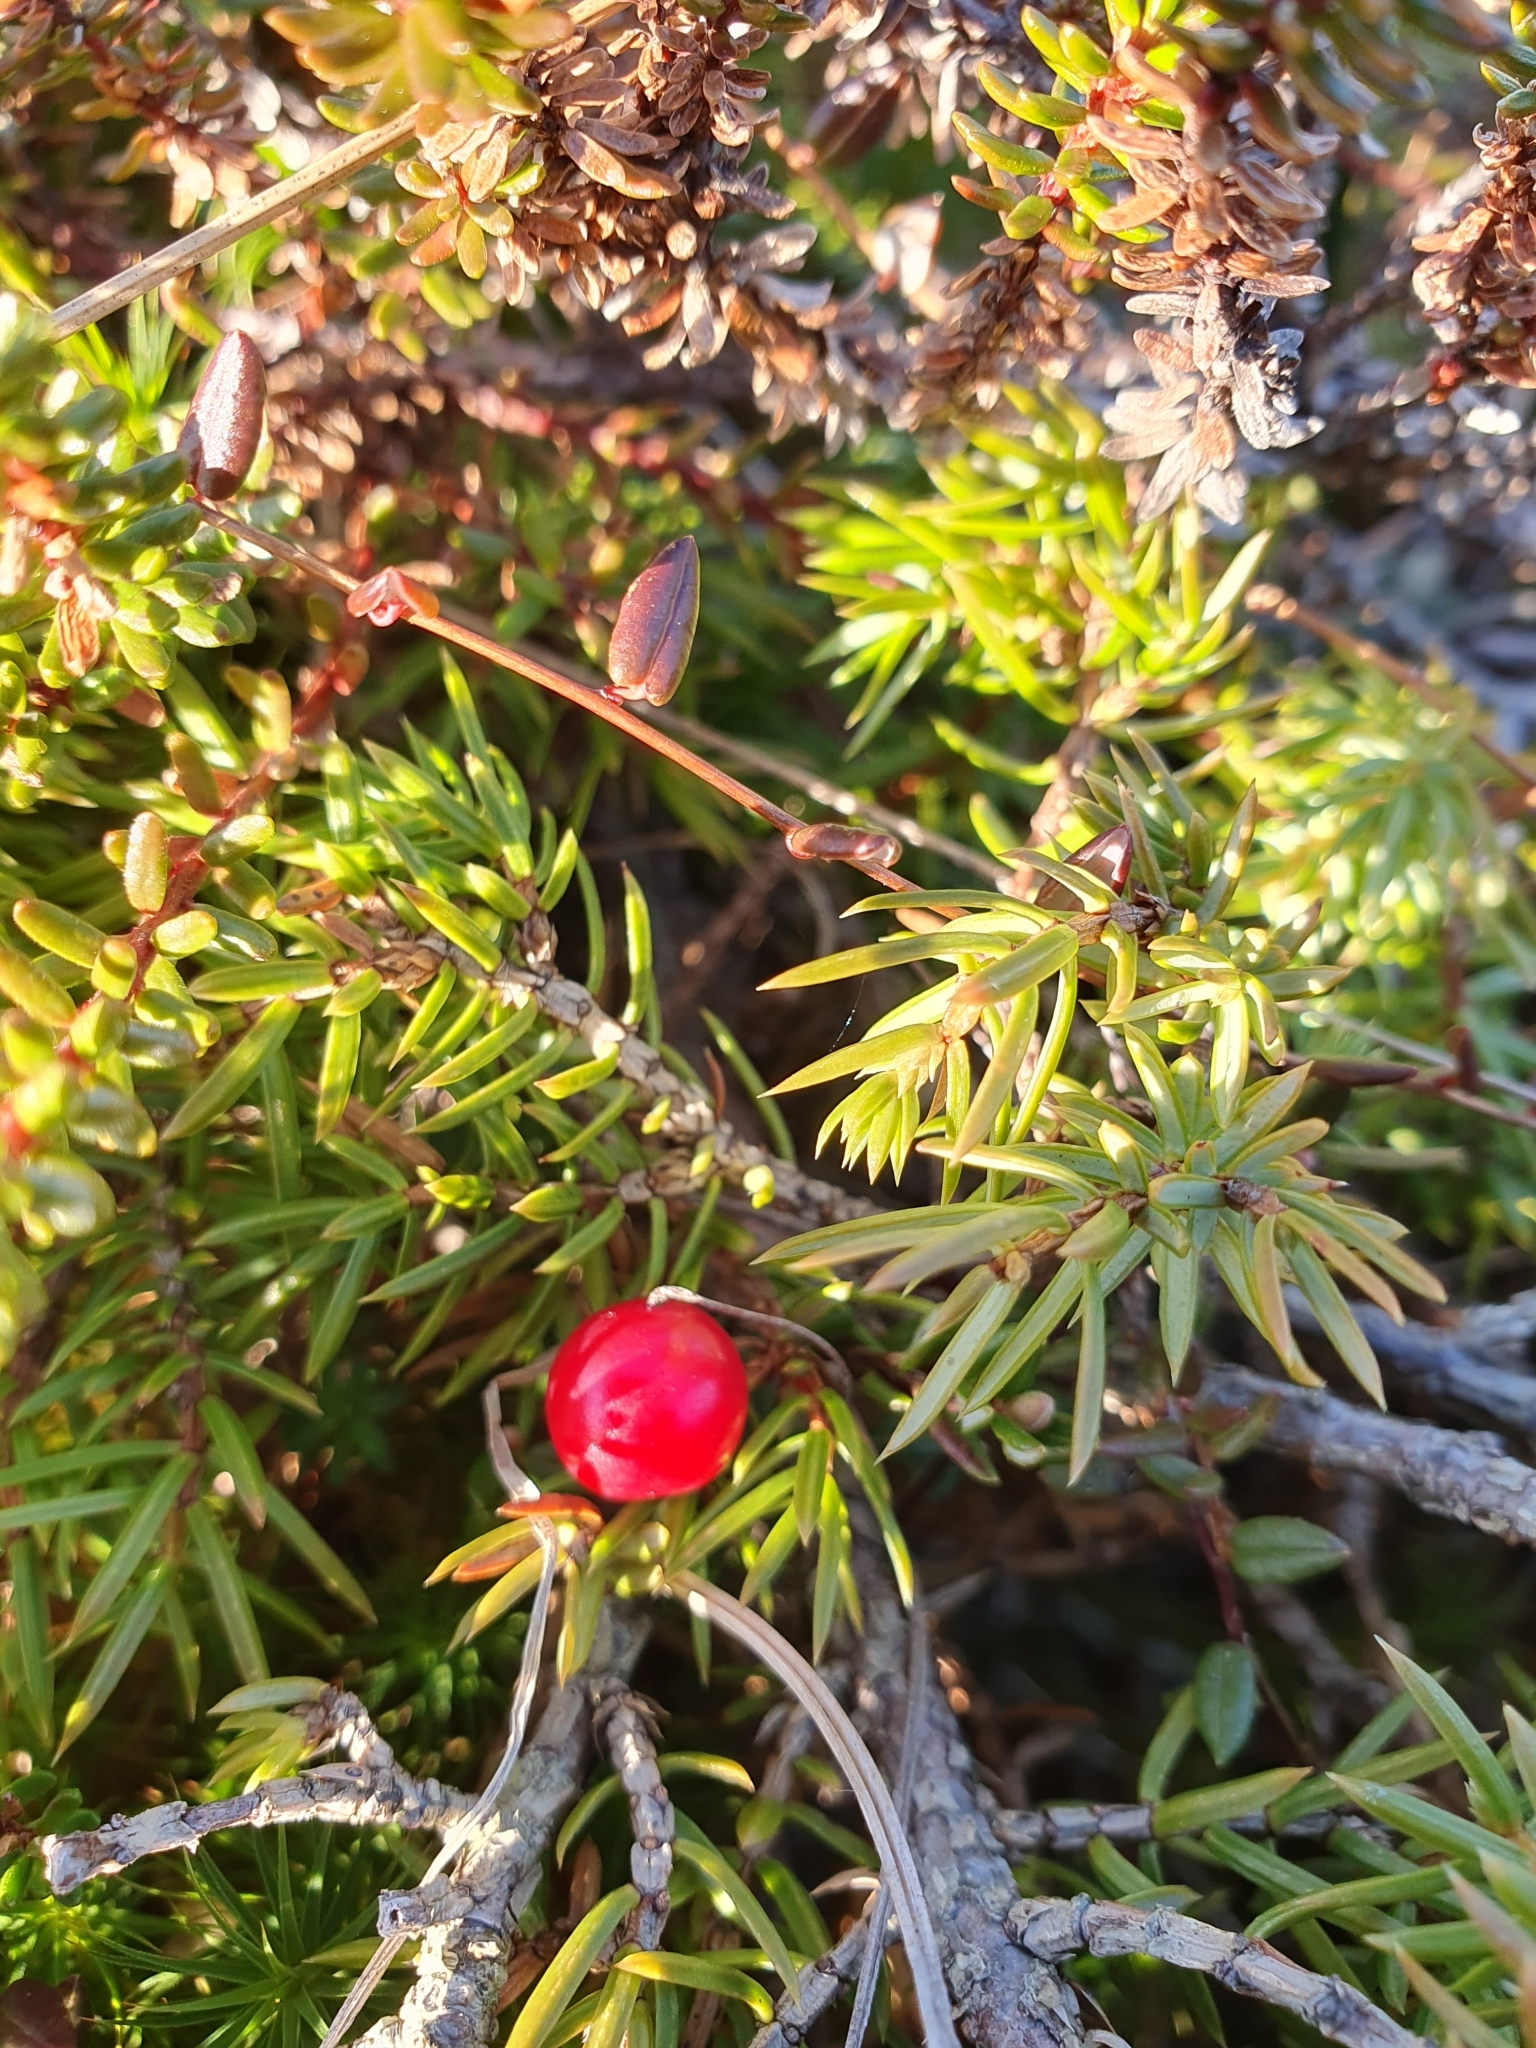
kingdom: Plantae
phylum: Tracheophyta
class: Magnoliopsida
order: Ericales
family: Ericaceae
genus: Vaccinium
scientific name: Vaccinium oxycoccos
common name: Cranberry
